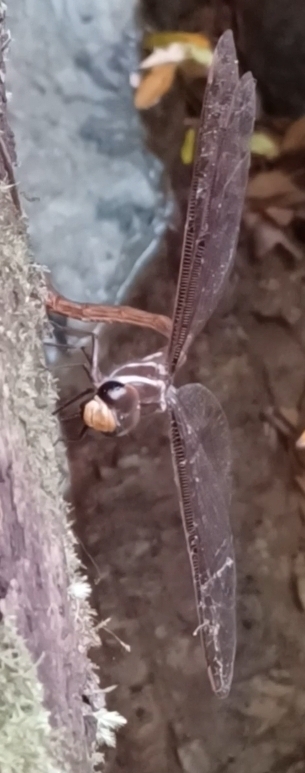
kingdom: Animalia
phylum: Arthropoda
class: Insecta
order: Odonata
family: Aeshnidae
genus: Austrophlebia
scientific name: Austrophlebia costalis
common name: Southern giant darner
